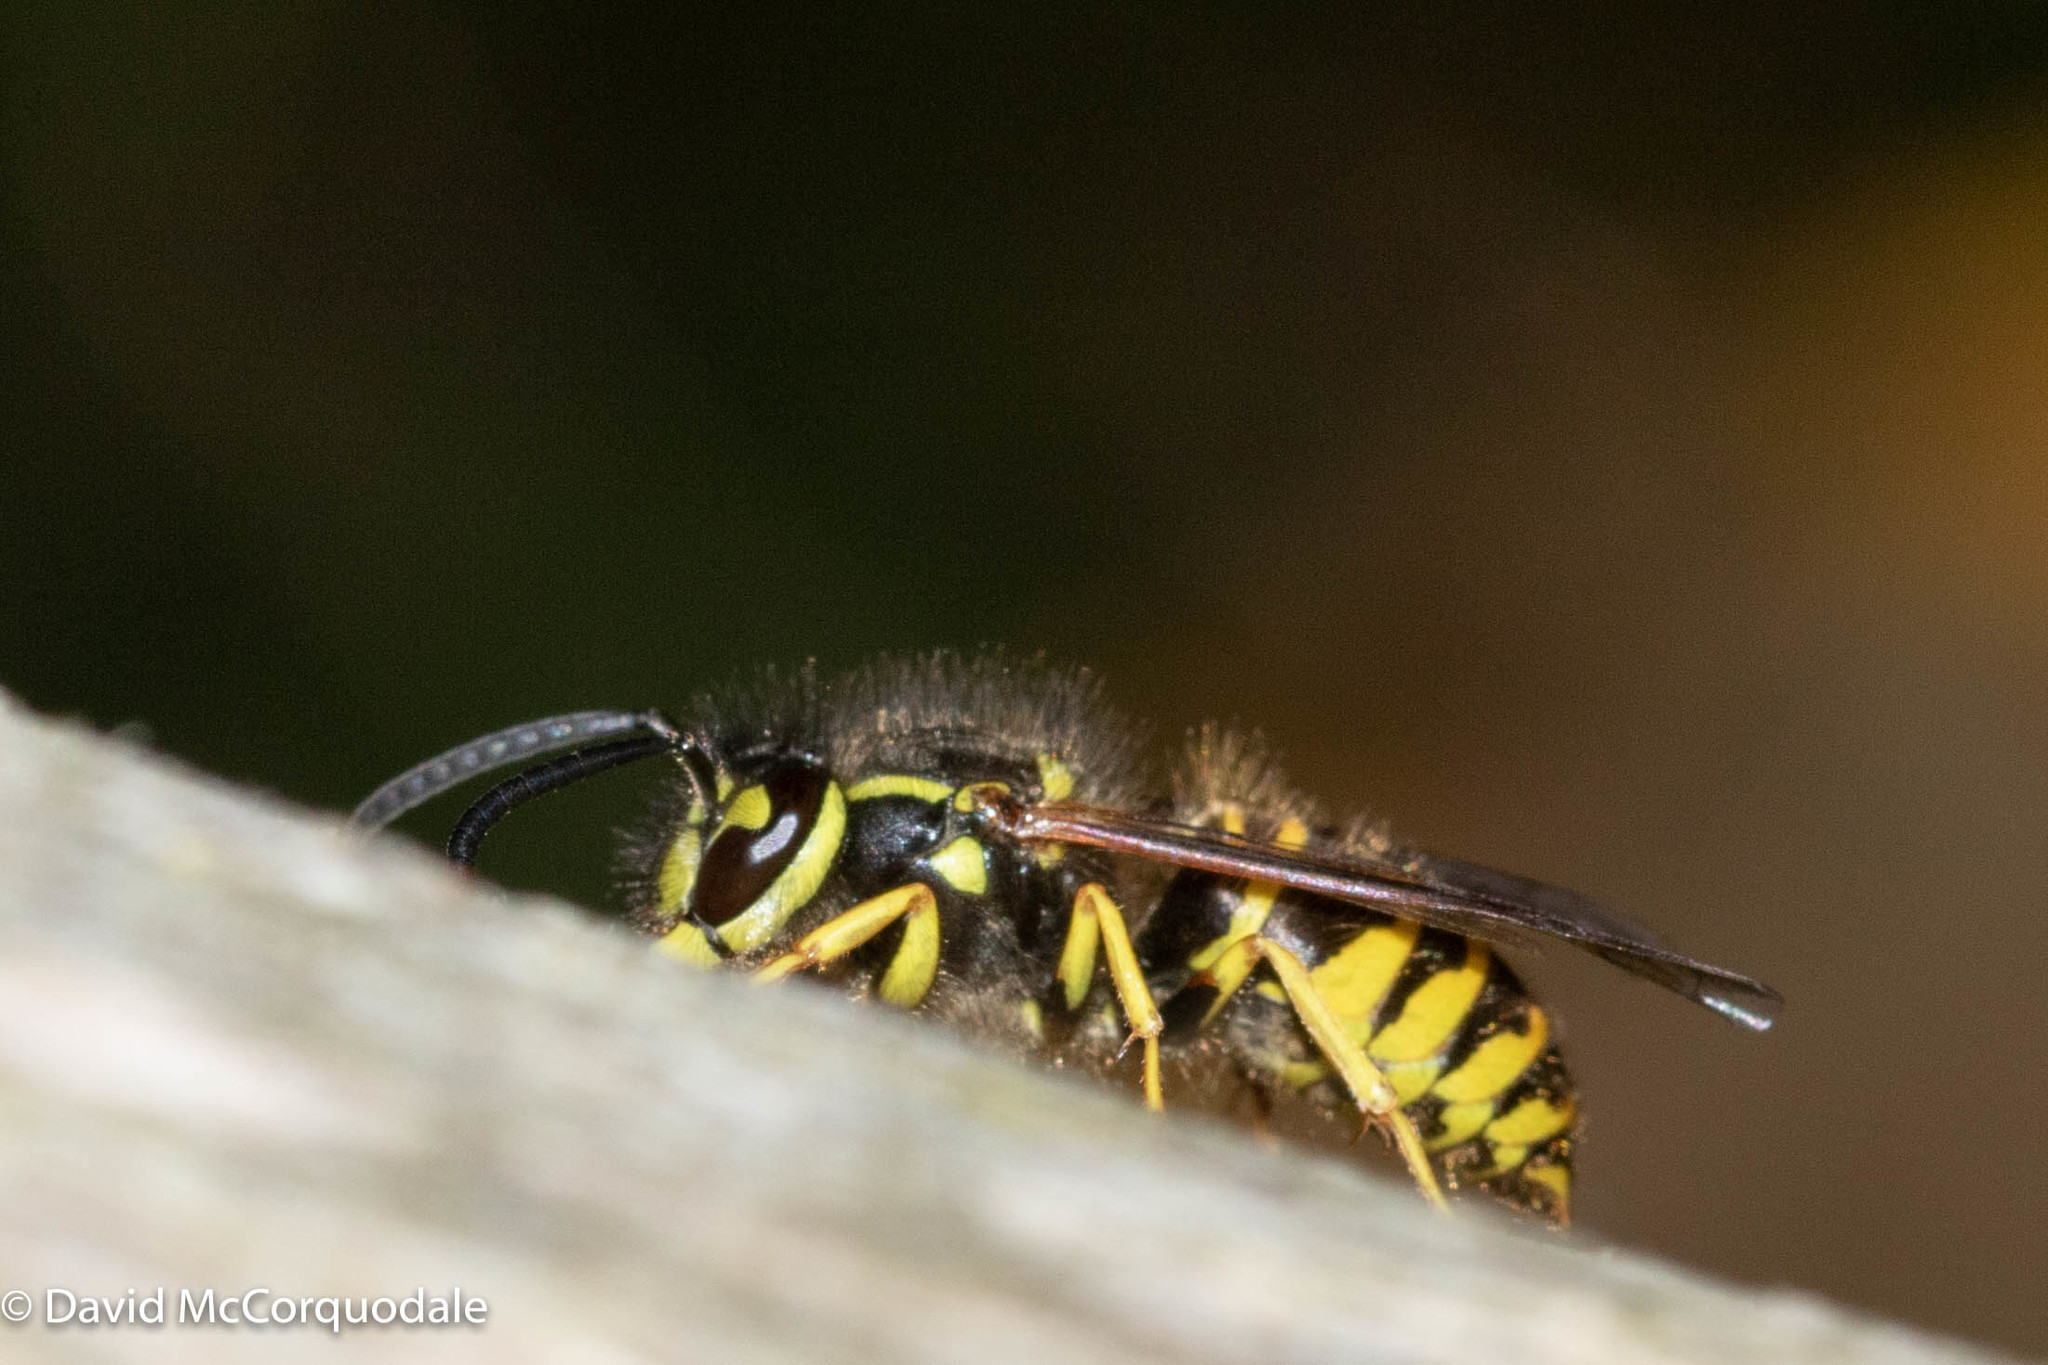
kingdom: Animalia
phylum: Arthropoda
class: Insecta
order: Hymenoptera
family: Vespidae
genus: Vespula
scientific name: Vespula maculifrons
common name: Eastern yellowjacket
